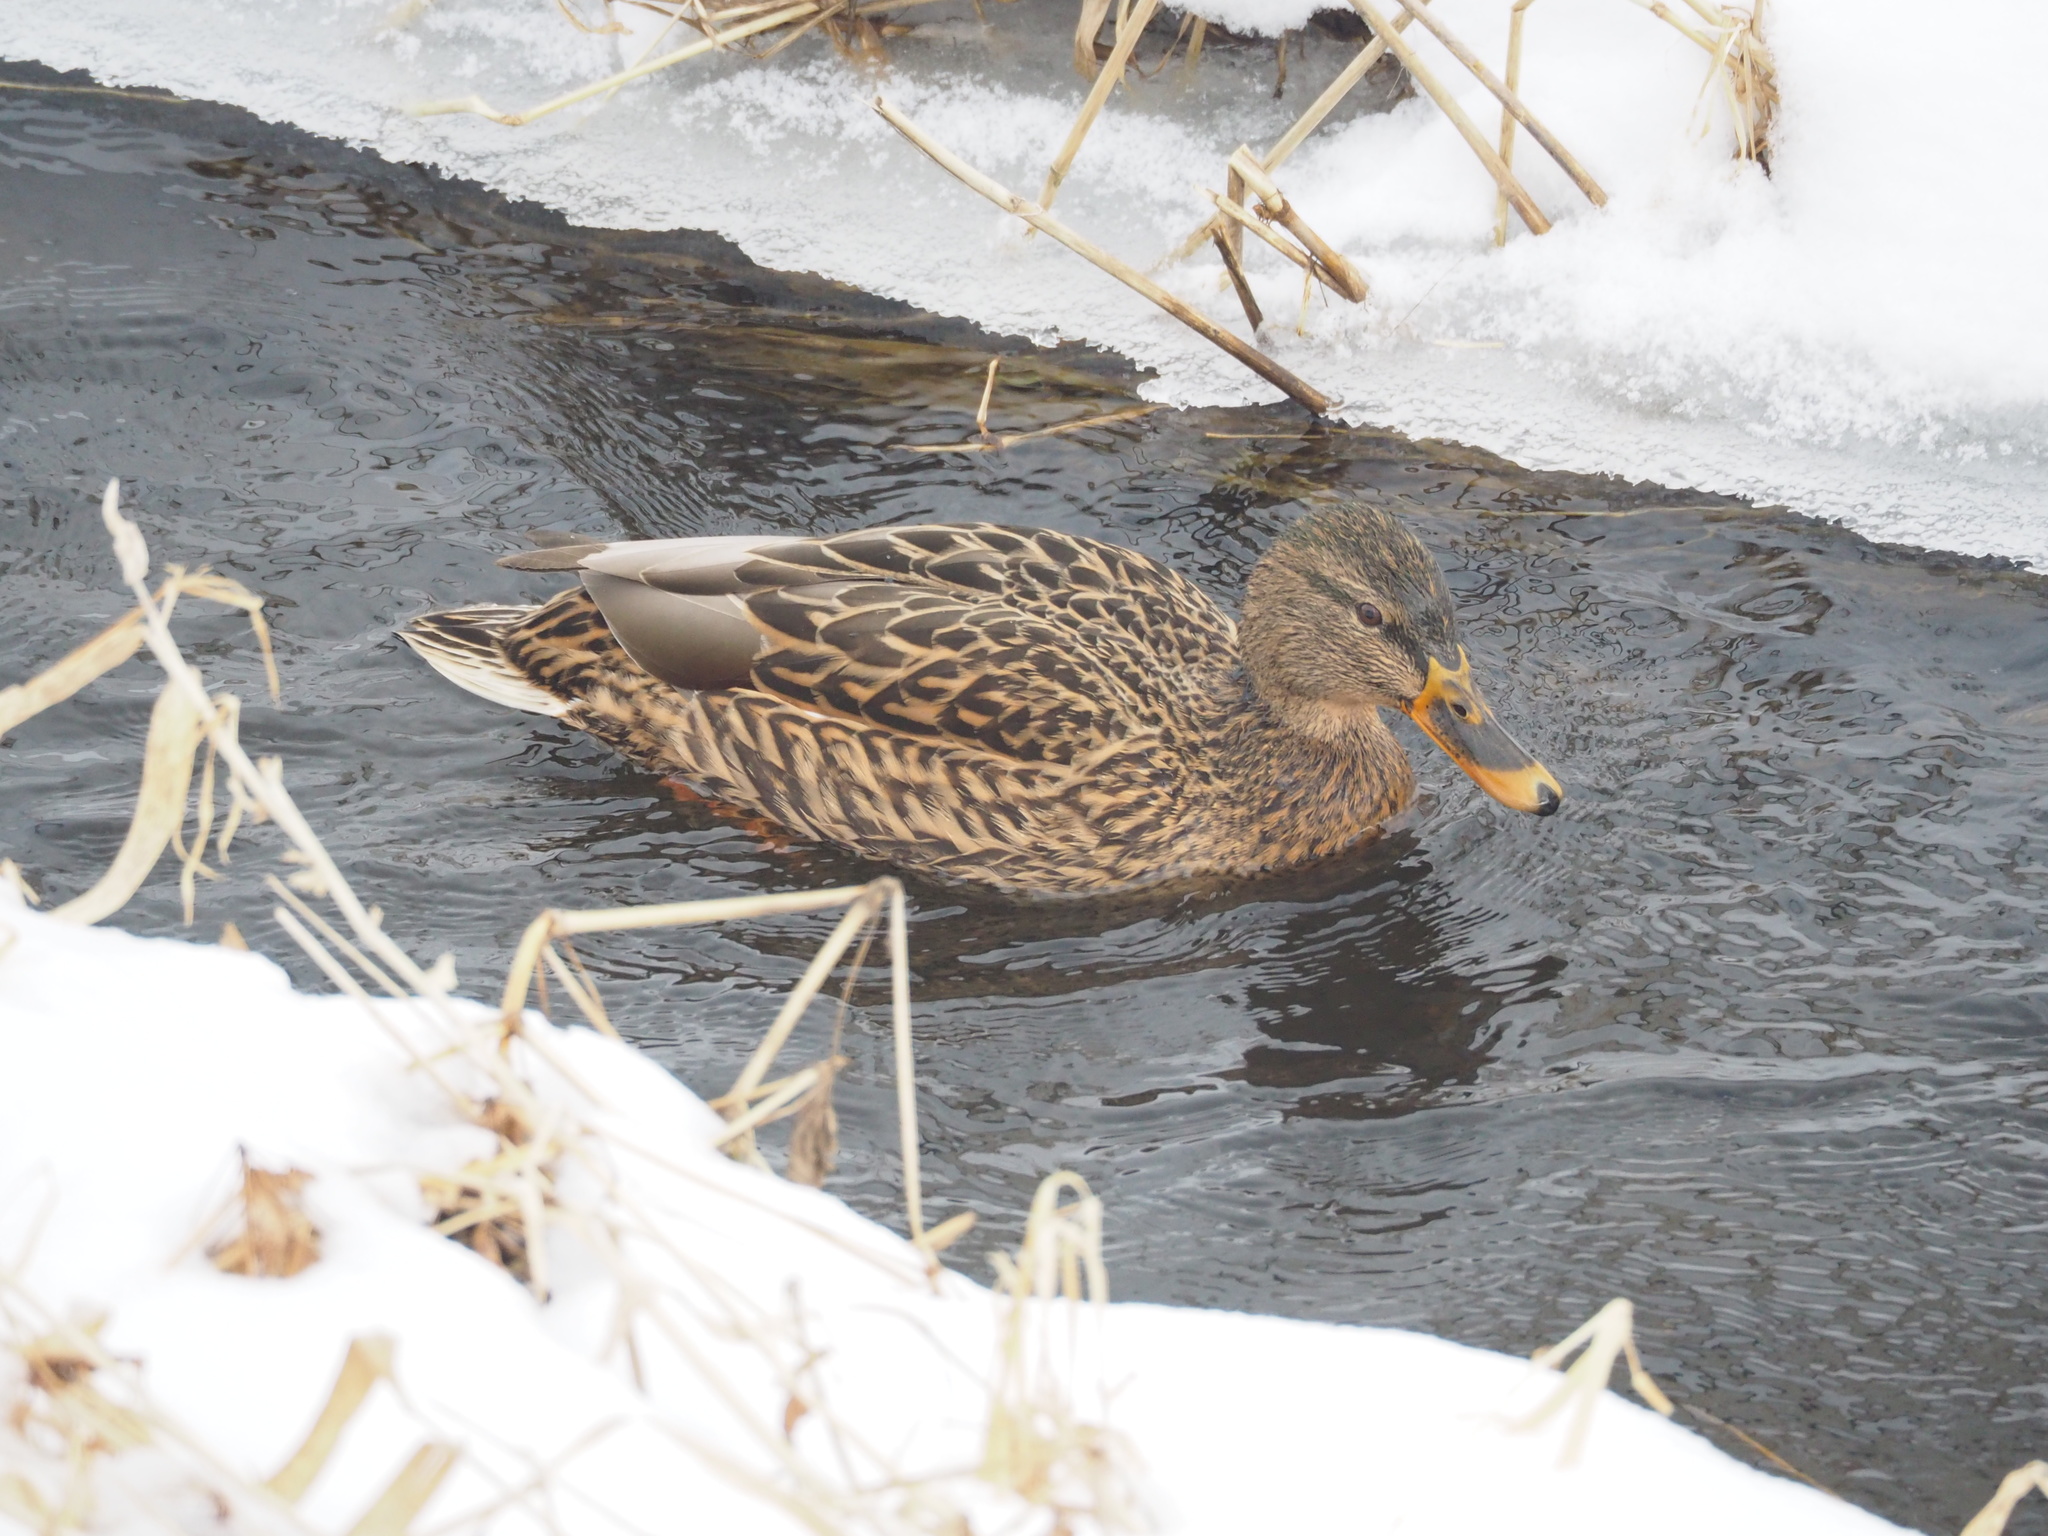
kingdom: Animalia
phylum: Chordata
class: Aves
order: Anseriformes
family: Anatidae
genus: Anas
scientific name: Anas platyrhynchos
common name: Mallard
